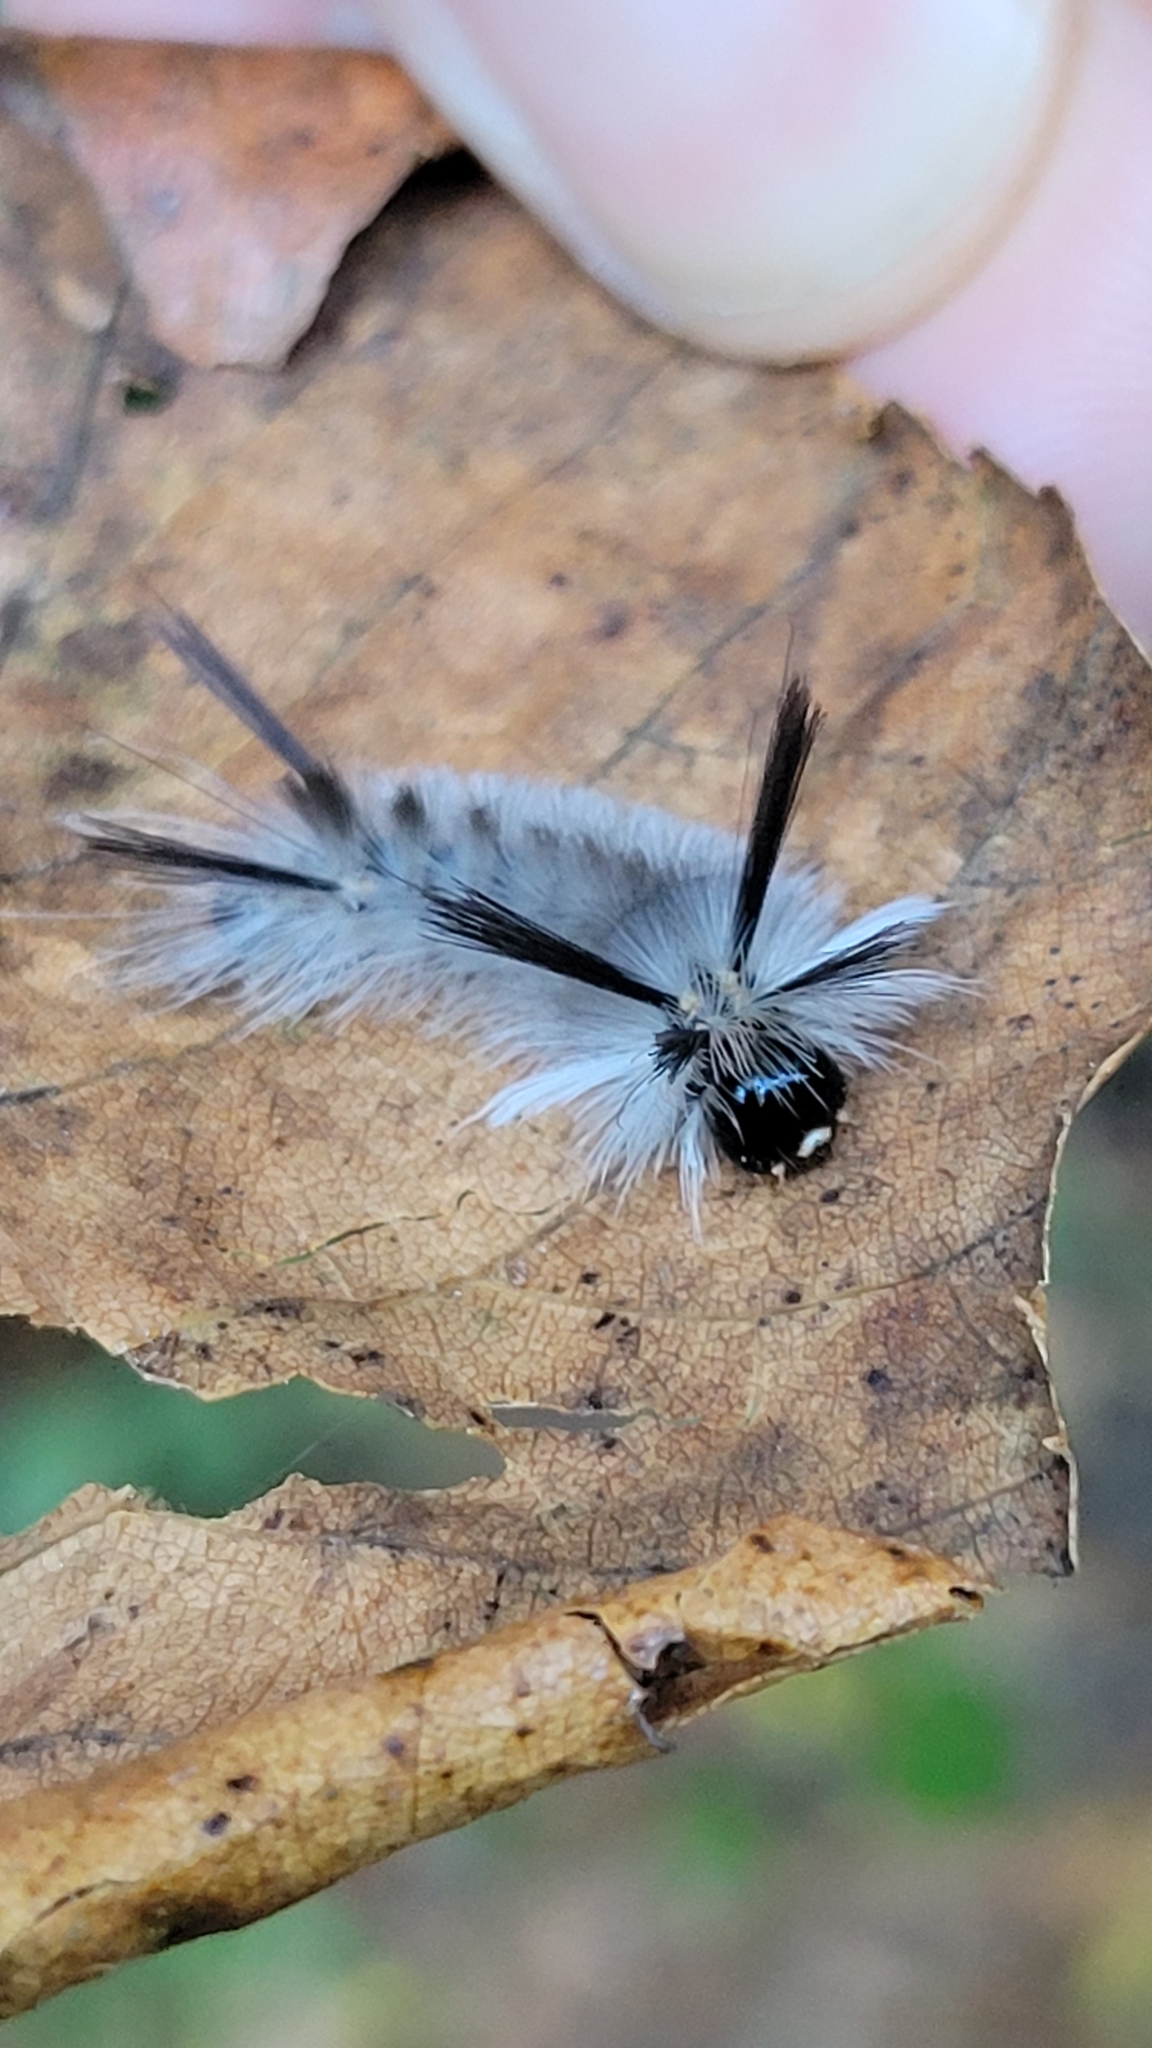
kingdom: Animalia
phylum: Arthropoda
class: Insecta
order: Lepidoptera
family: Erebidae
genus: Halysidota
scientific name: Halysidota tessellaris
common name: Banded tussock moth
